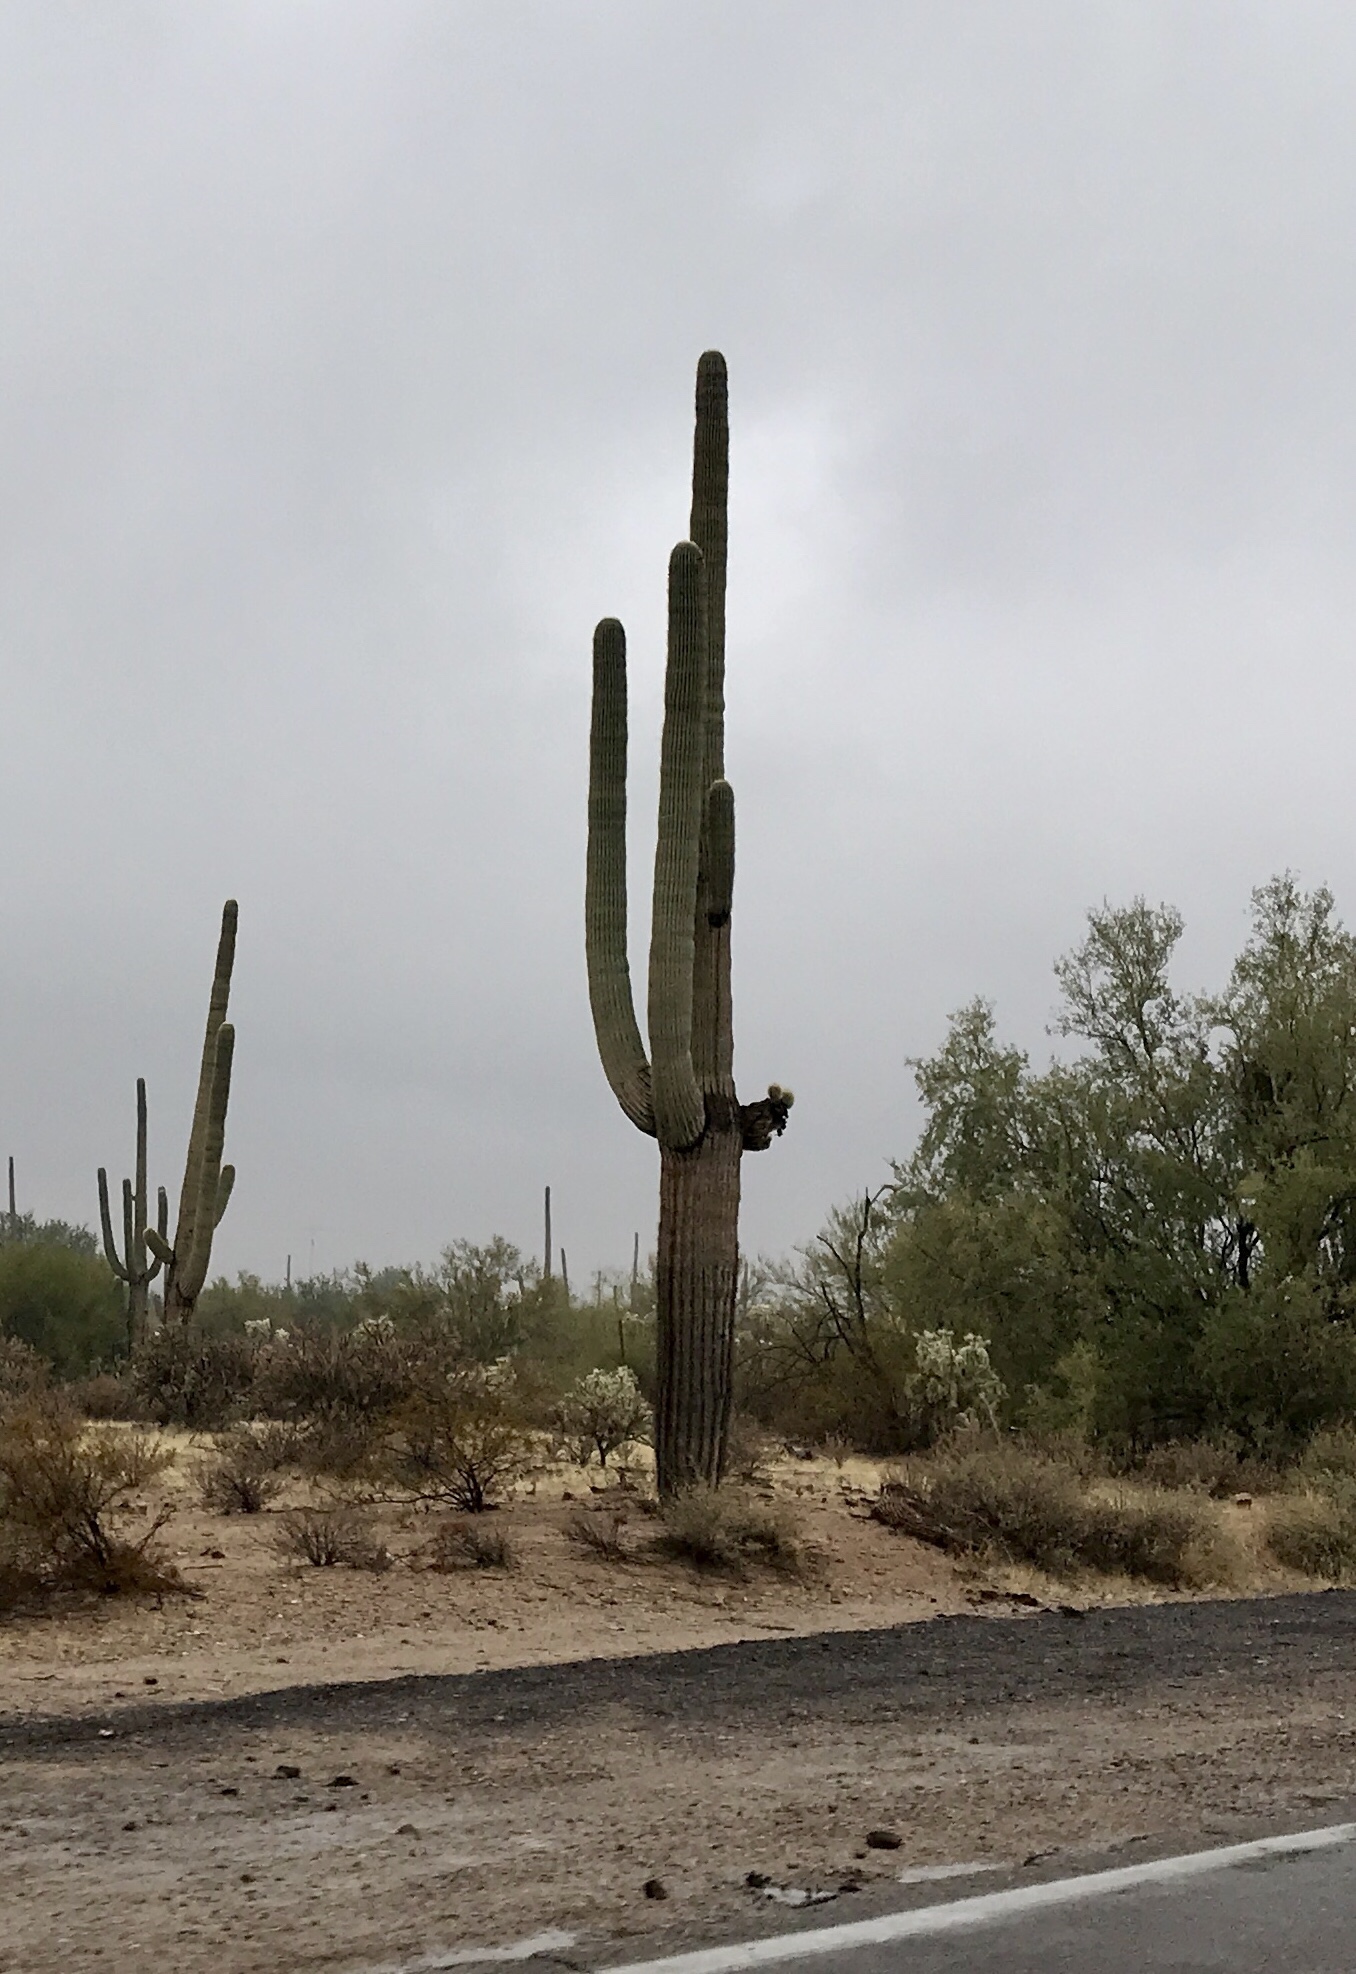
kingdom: Plantae
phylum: Tracheophyta
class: Magnoliopsida
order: Caryophyllales
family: Cactaceae
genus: Carnegiea
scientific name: Carnegiea gigantea
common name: Saguaro
